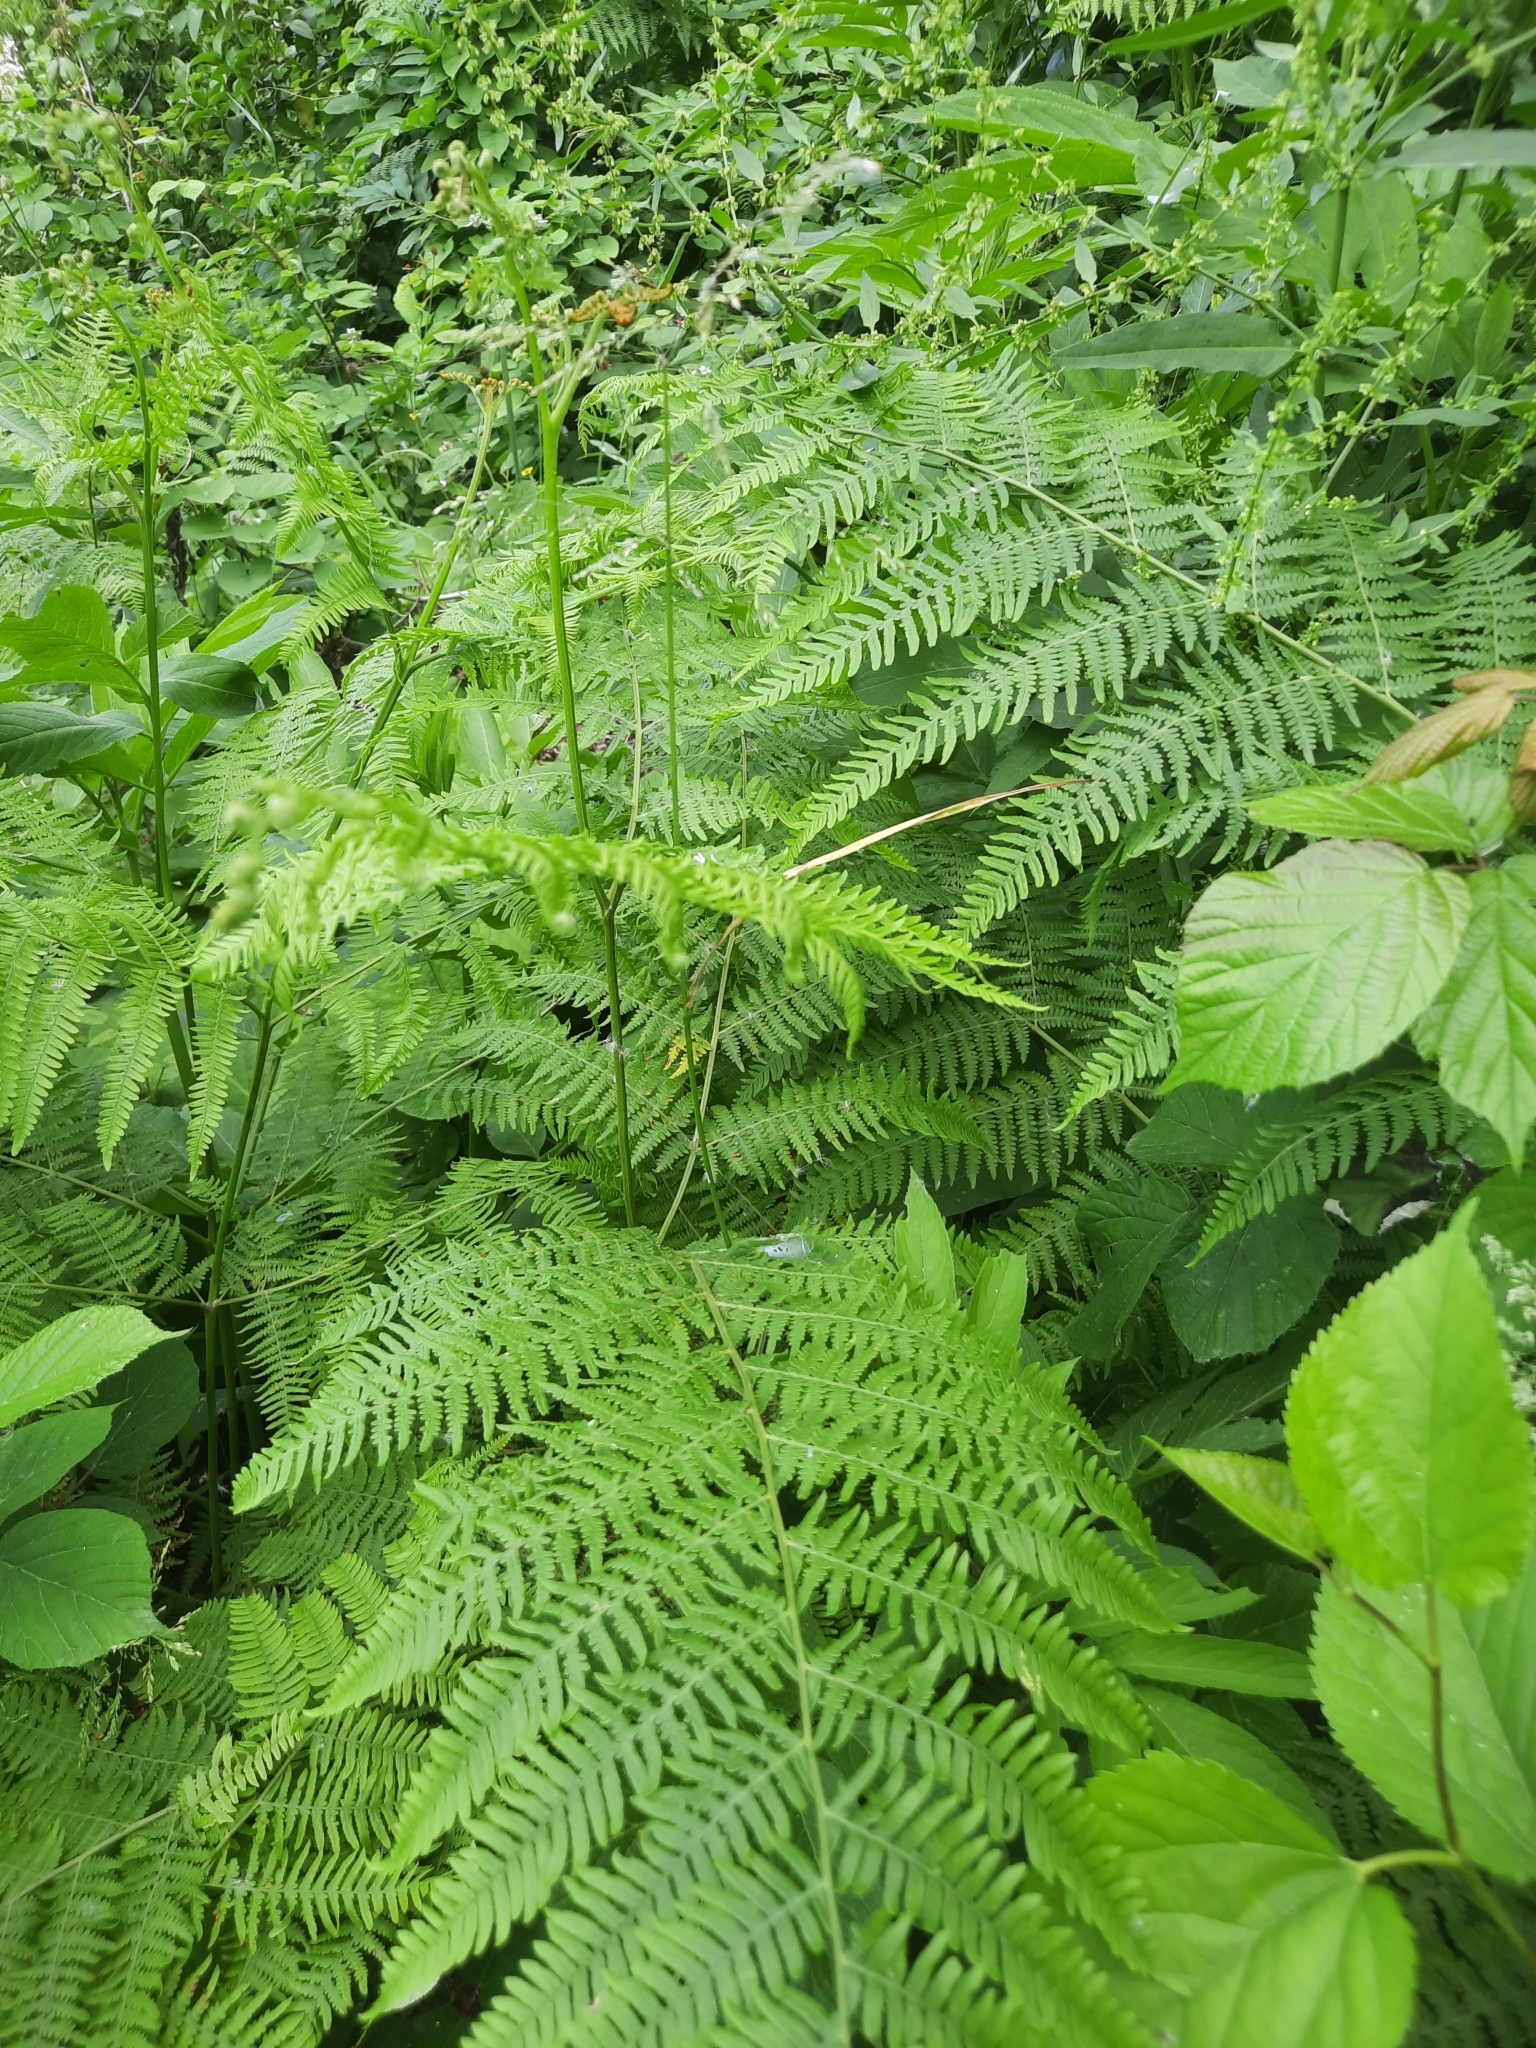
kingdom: Plantae
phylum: Tracheophyta
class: Polypodiopsida
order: Polypodiales
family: Dennstaedtiaceae
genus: Pteridium
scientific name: Pteridium tauricum
